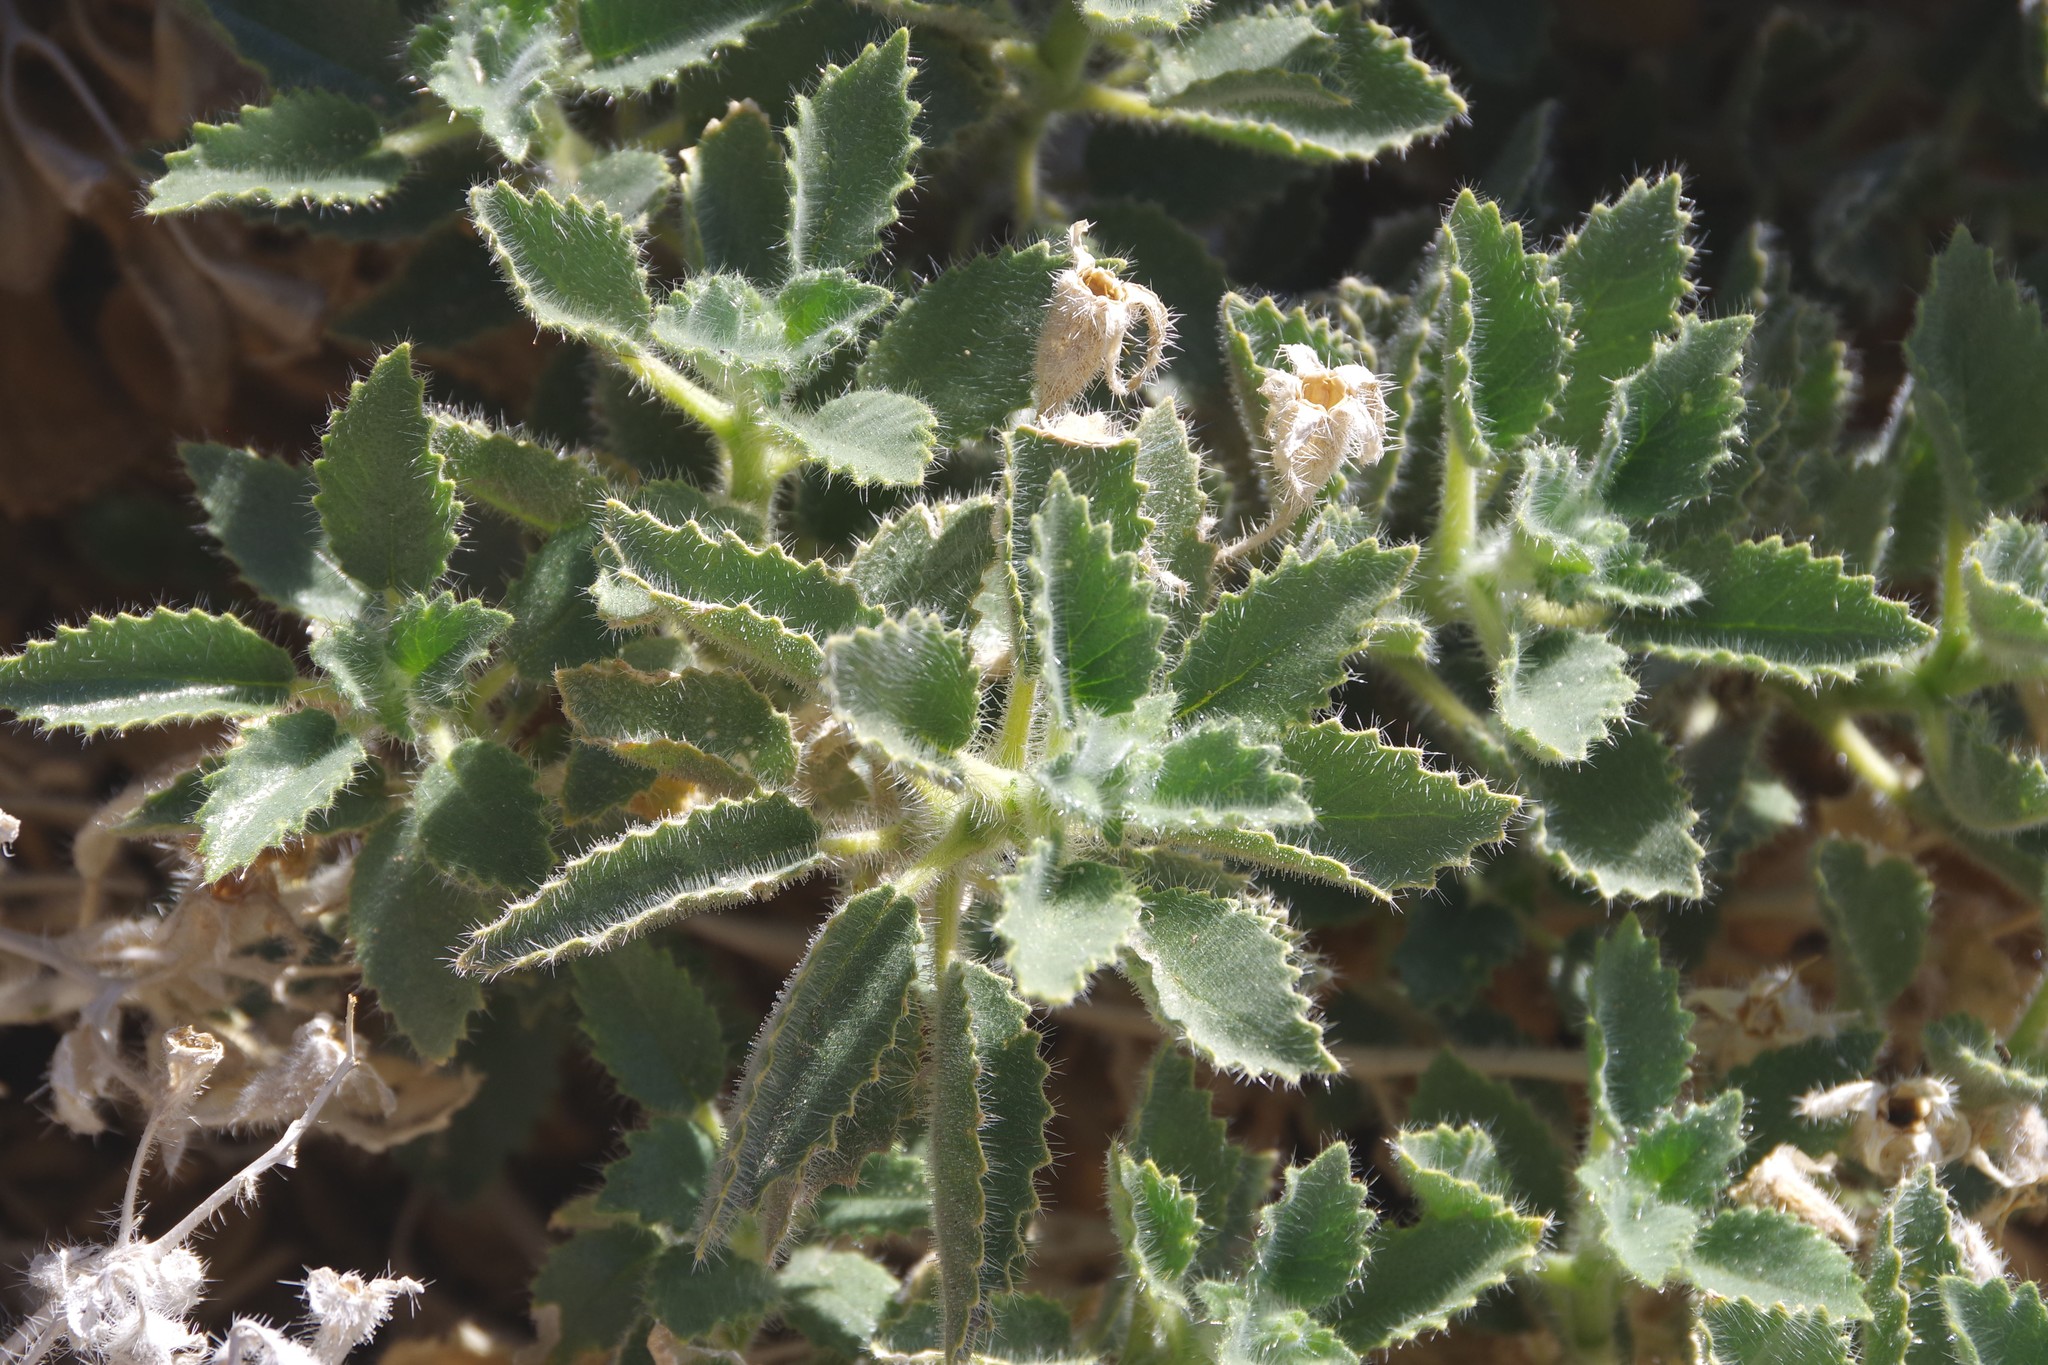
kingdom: Plantae
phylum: Tracheophyta
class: Magnoliopsida
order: Cornales
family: Loasaceae
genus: Eucnide
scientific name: Eucnide urens
